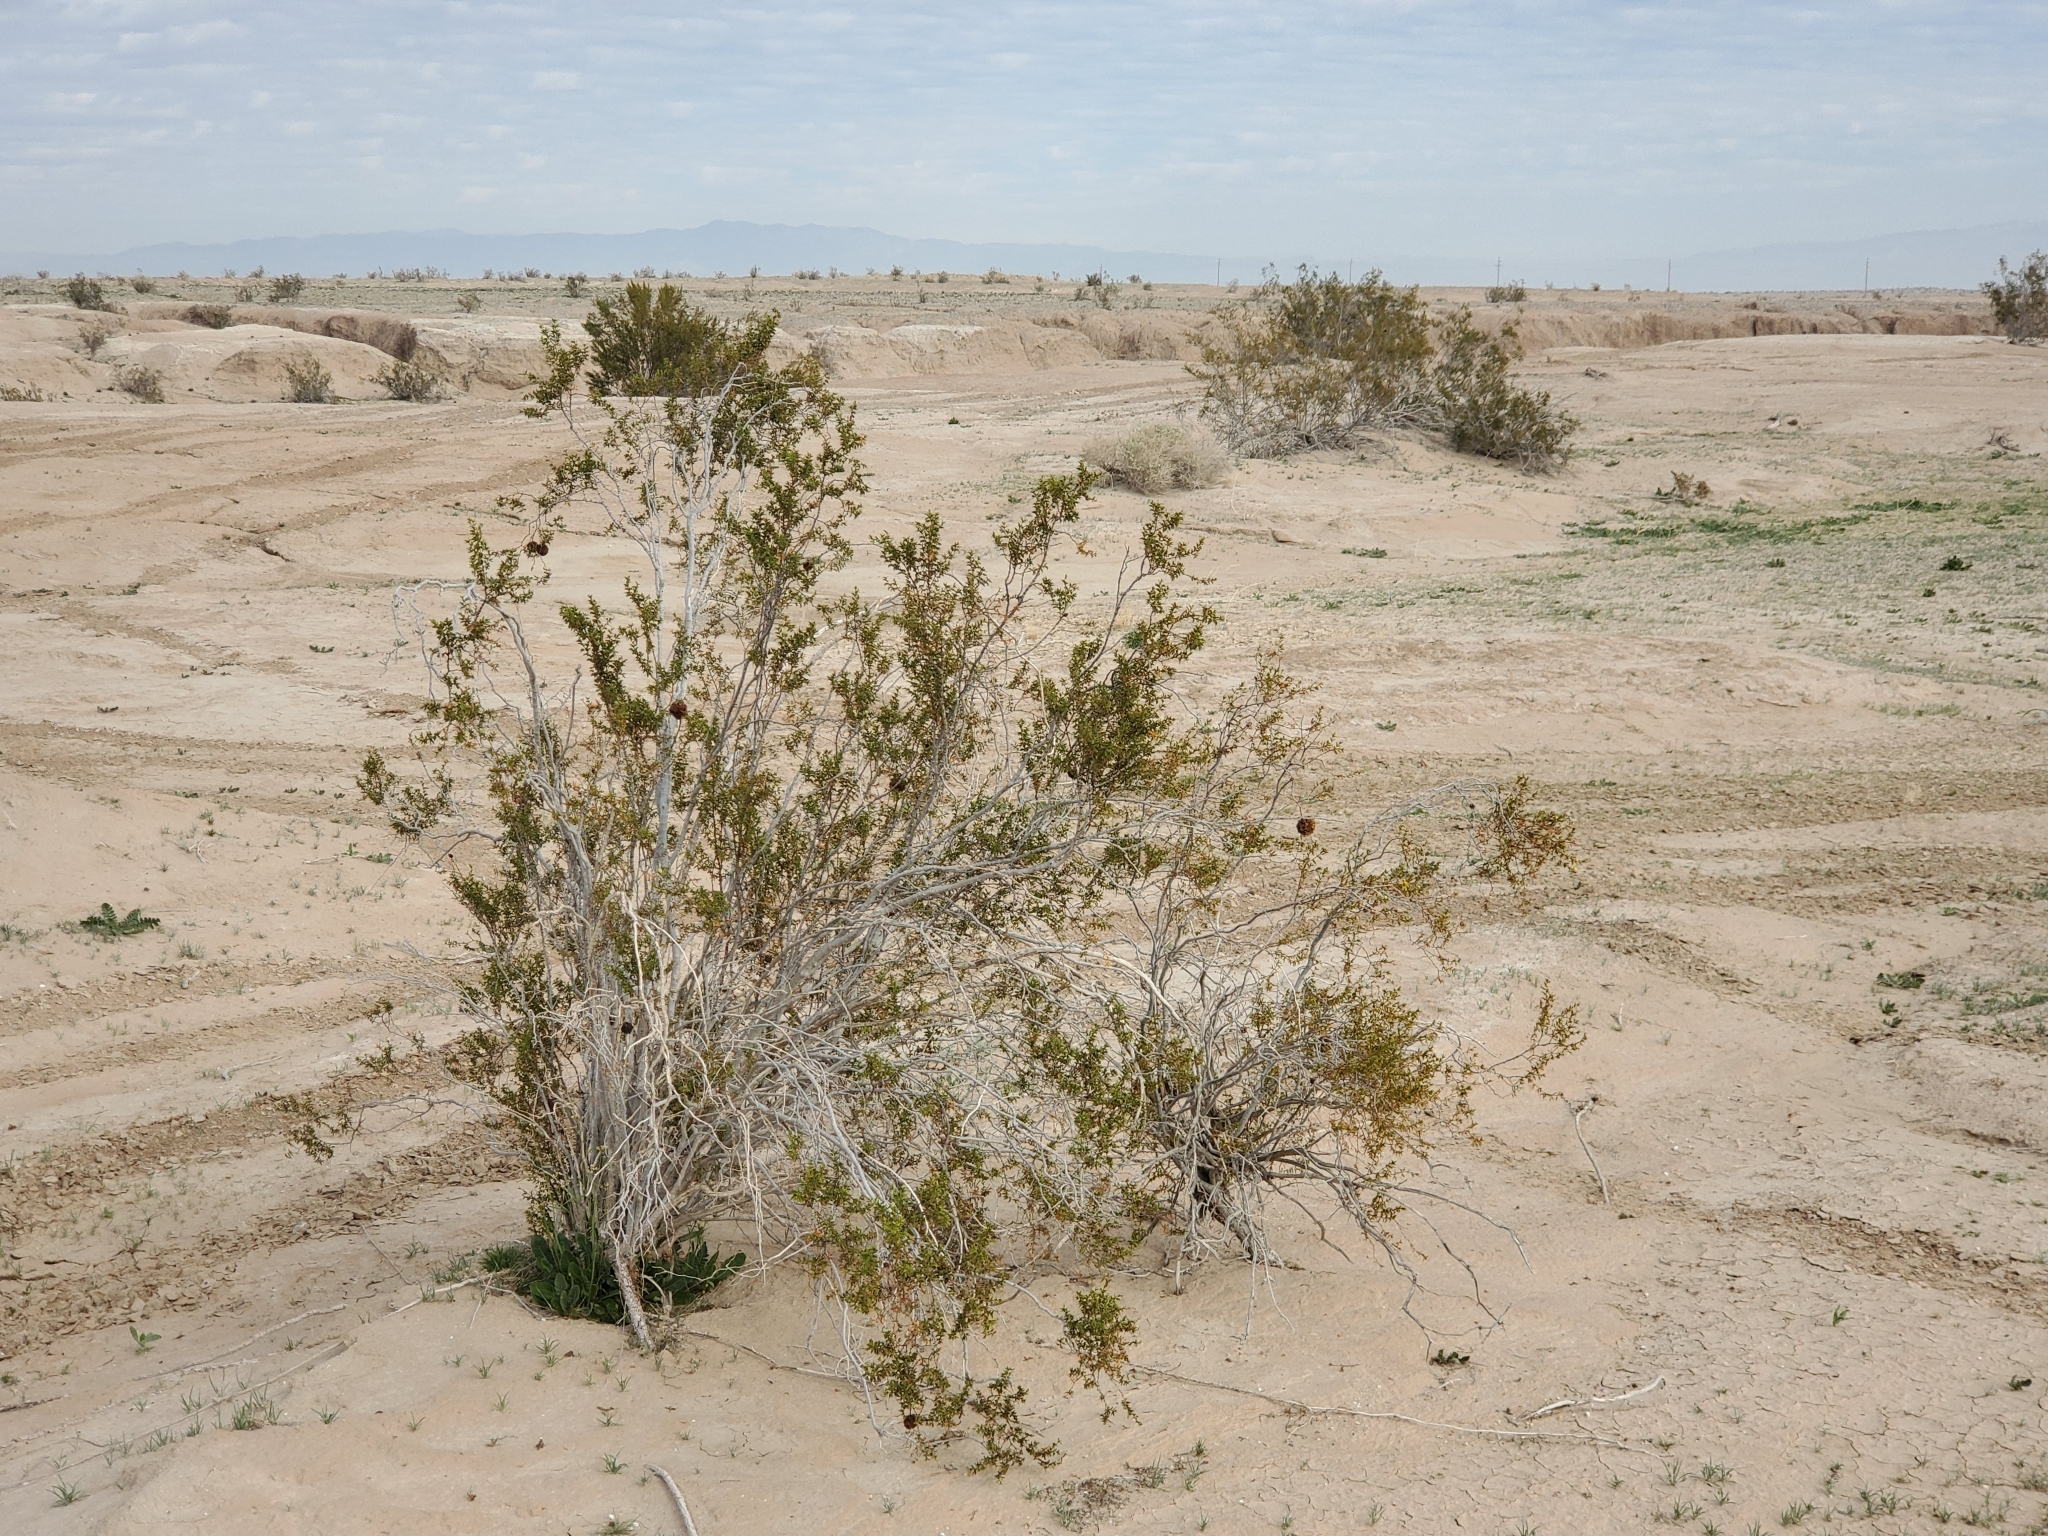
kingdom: Plantae
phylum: Tracheophyta
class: Magnoliopsida
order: Zygophyllales
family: Zygophyllaceae
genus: Larrea
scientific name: Larrea tridentata
